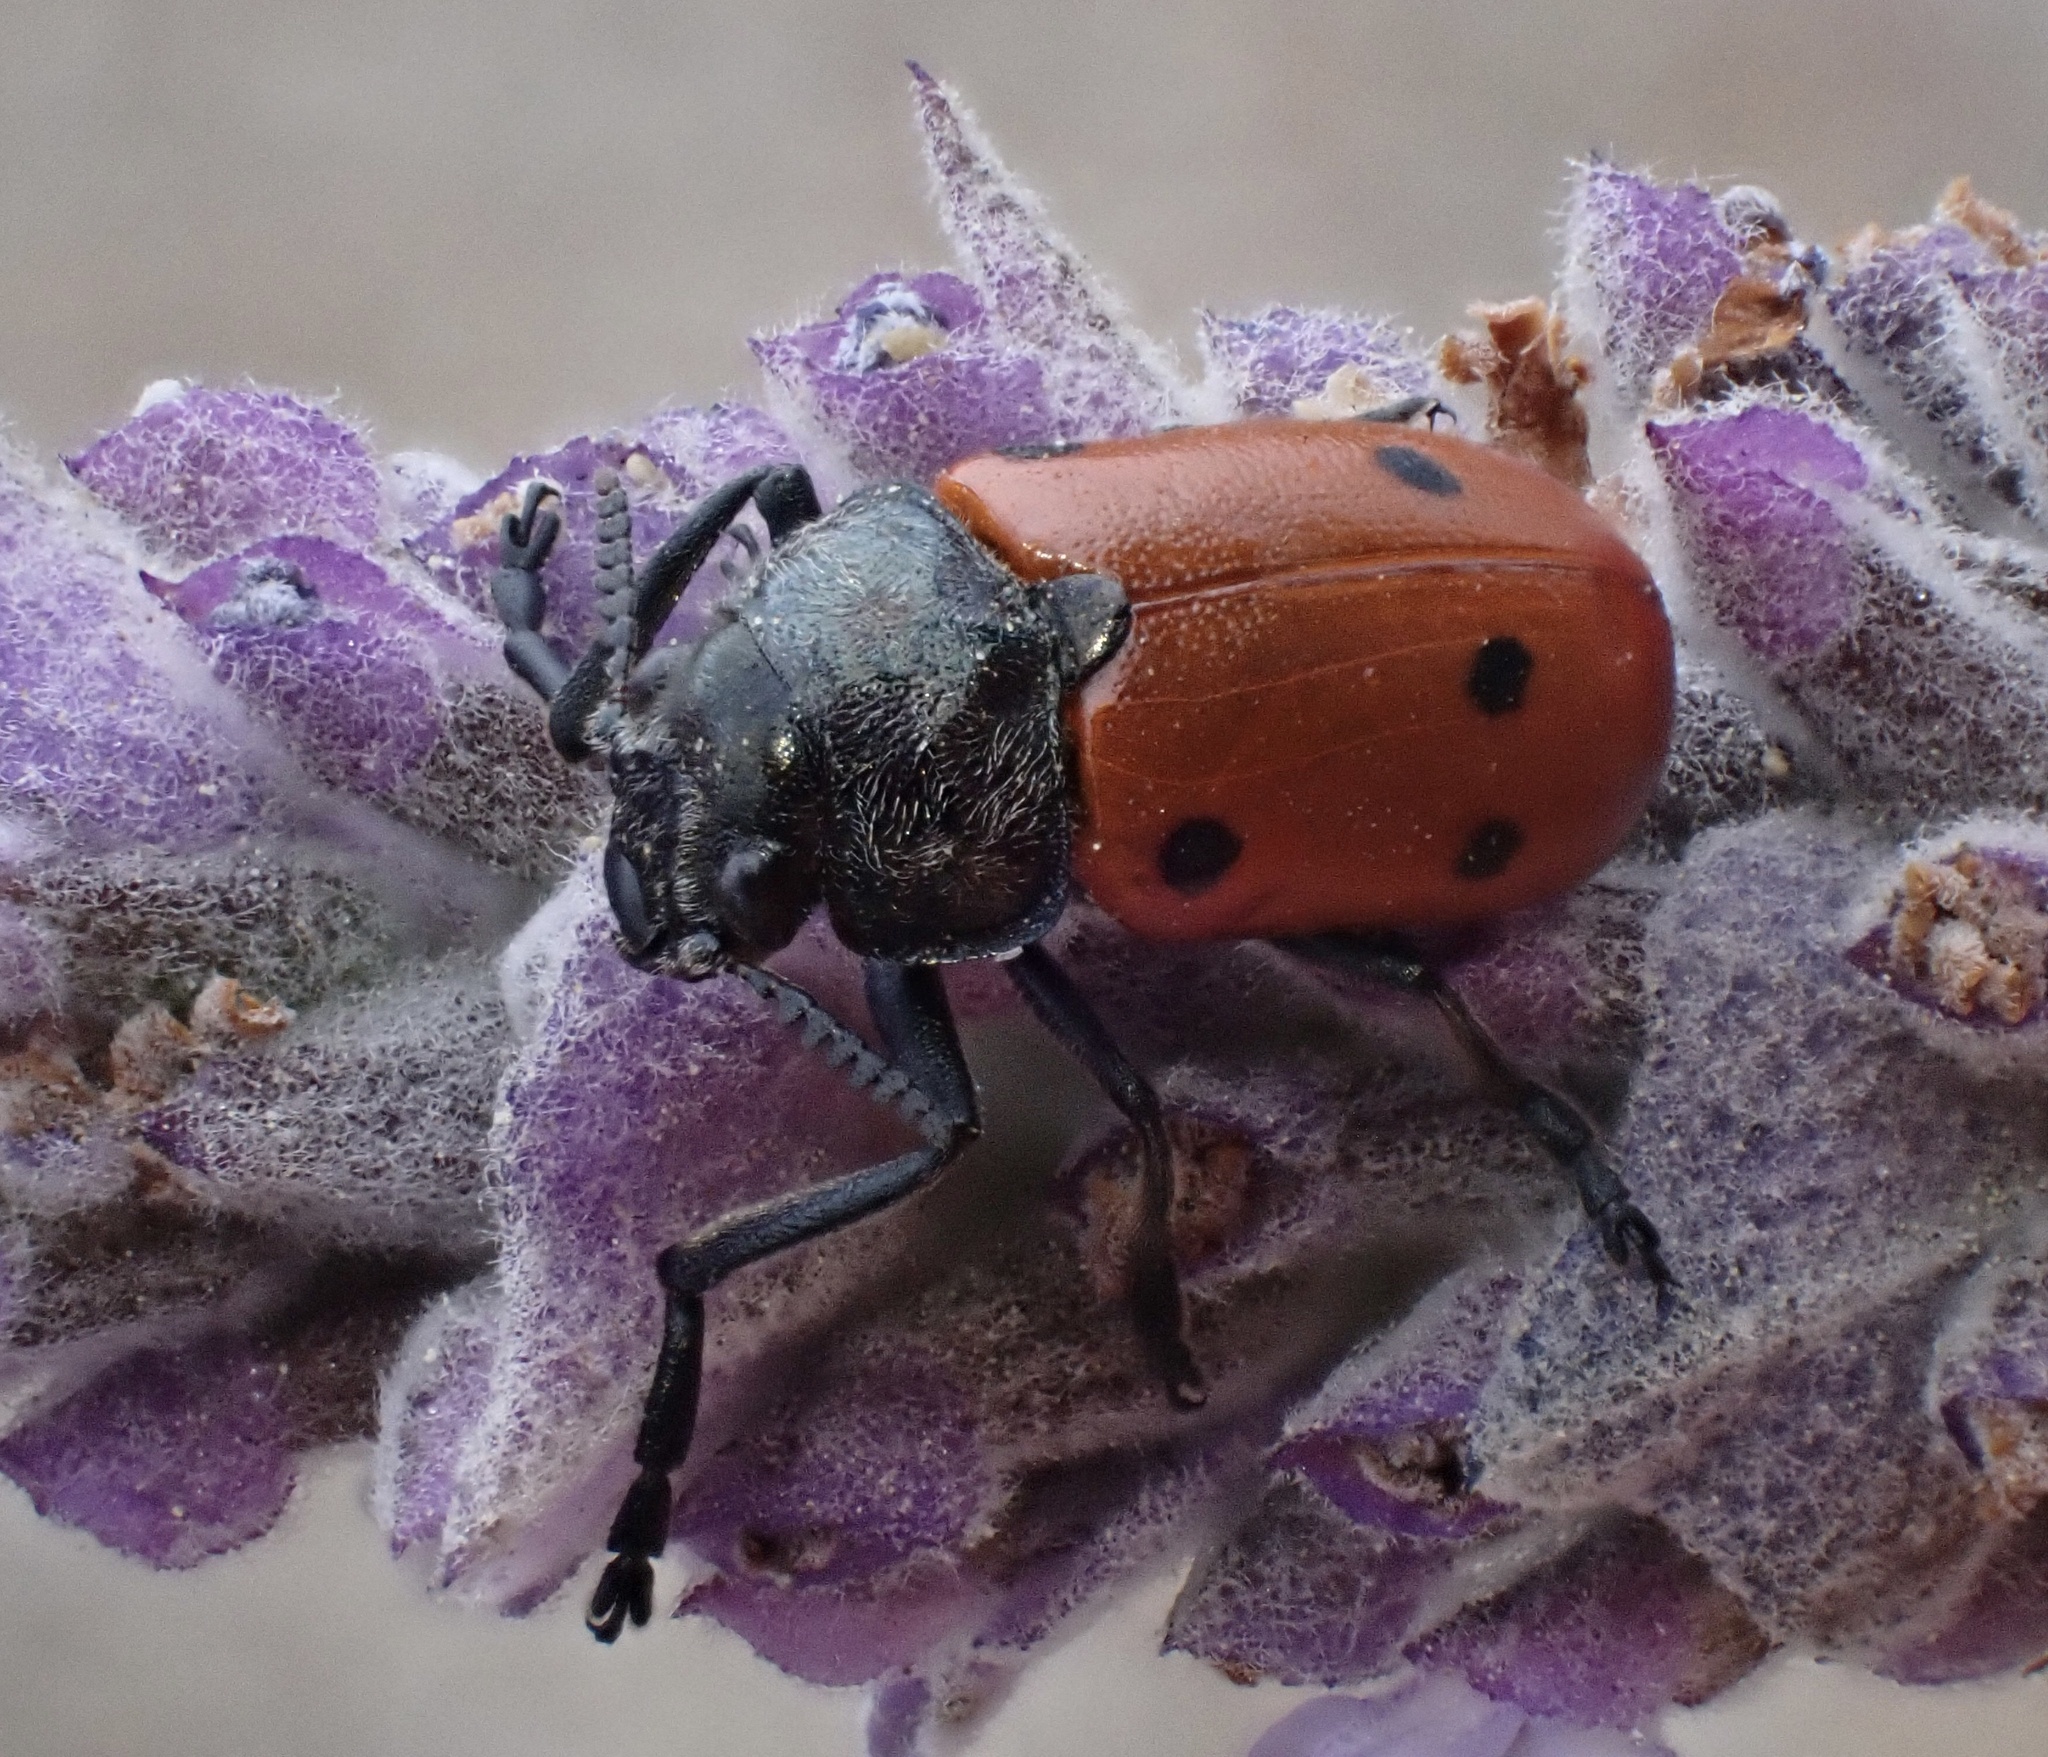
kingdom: Animalia
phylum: Arthropoda
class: Insecta
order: Coleoptera
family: Chrysomelidae
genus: Lachnaia
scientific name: Lachnaia paradoxa
